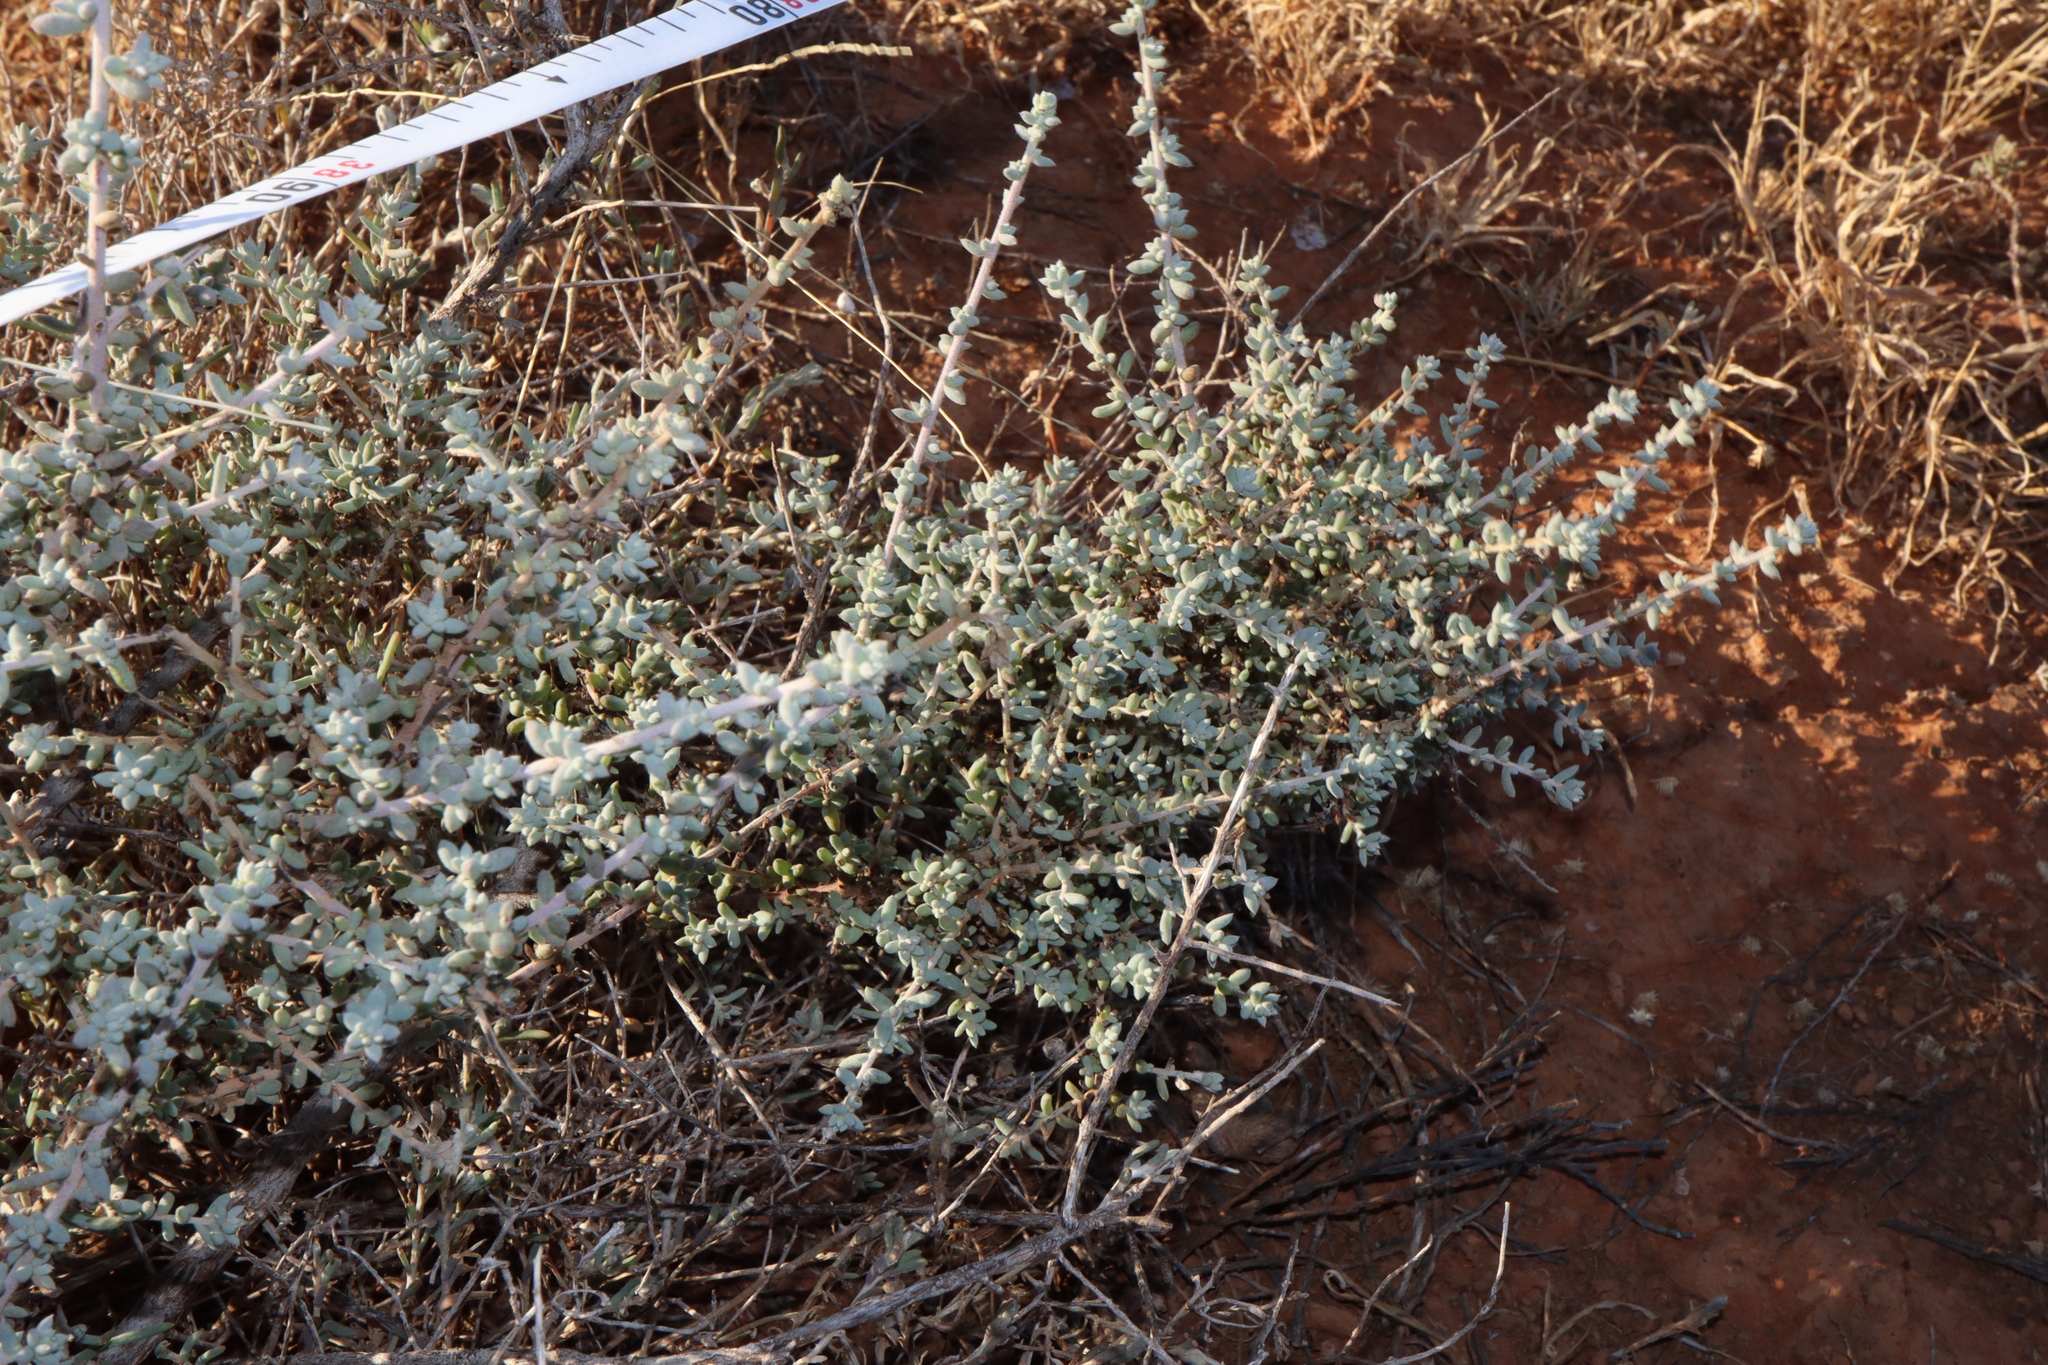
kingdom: Plantae
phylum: Tracheophyta
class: Magnoliopsida
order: Caryophyllales
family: Amaranthaceae
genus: Maireana
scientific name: Maireana pyramidata
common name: Sagobush
